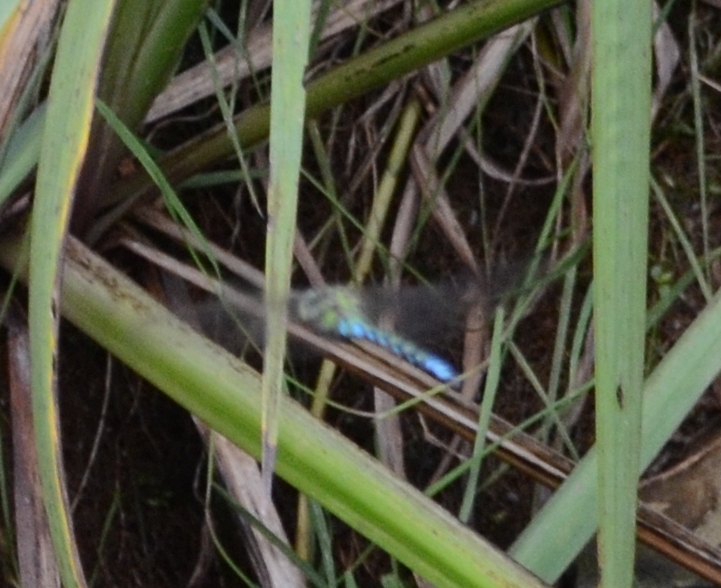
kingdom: Animalia
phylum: Arthropoda
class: Insecta
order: Odonata
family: Aeshnidae
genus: Aeshna
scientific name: Aeshna cyanea
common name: Southern hawker
